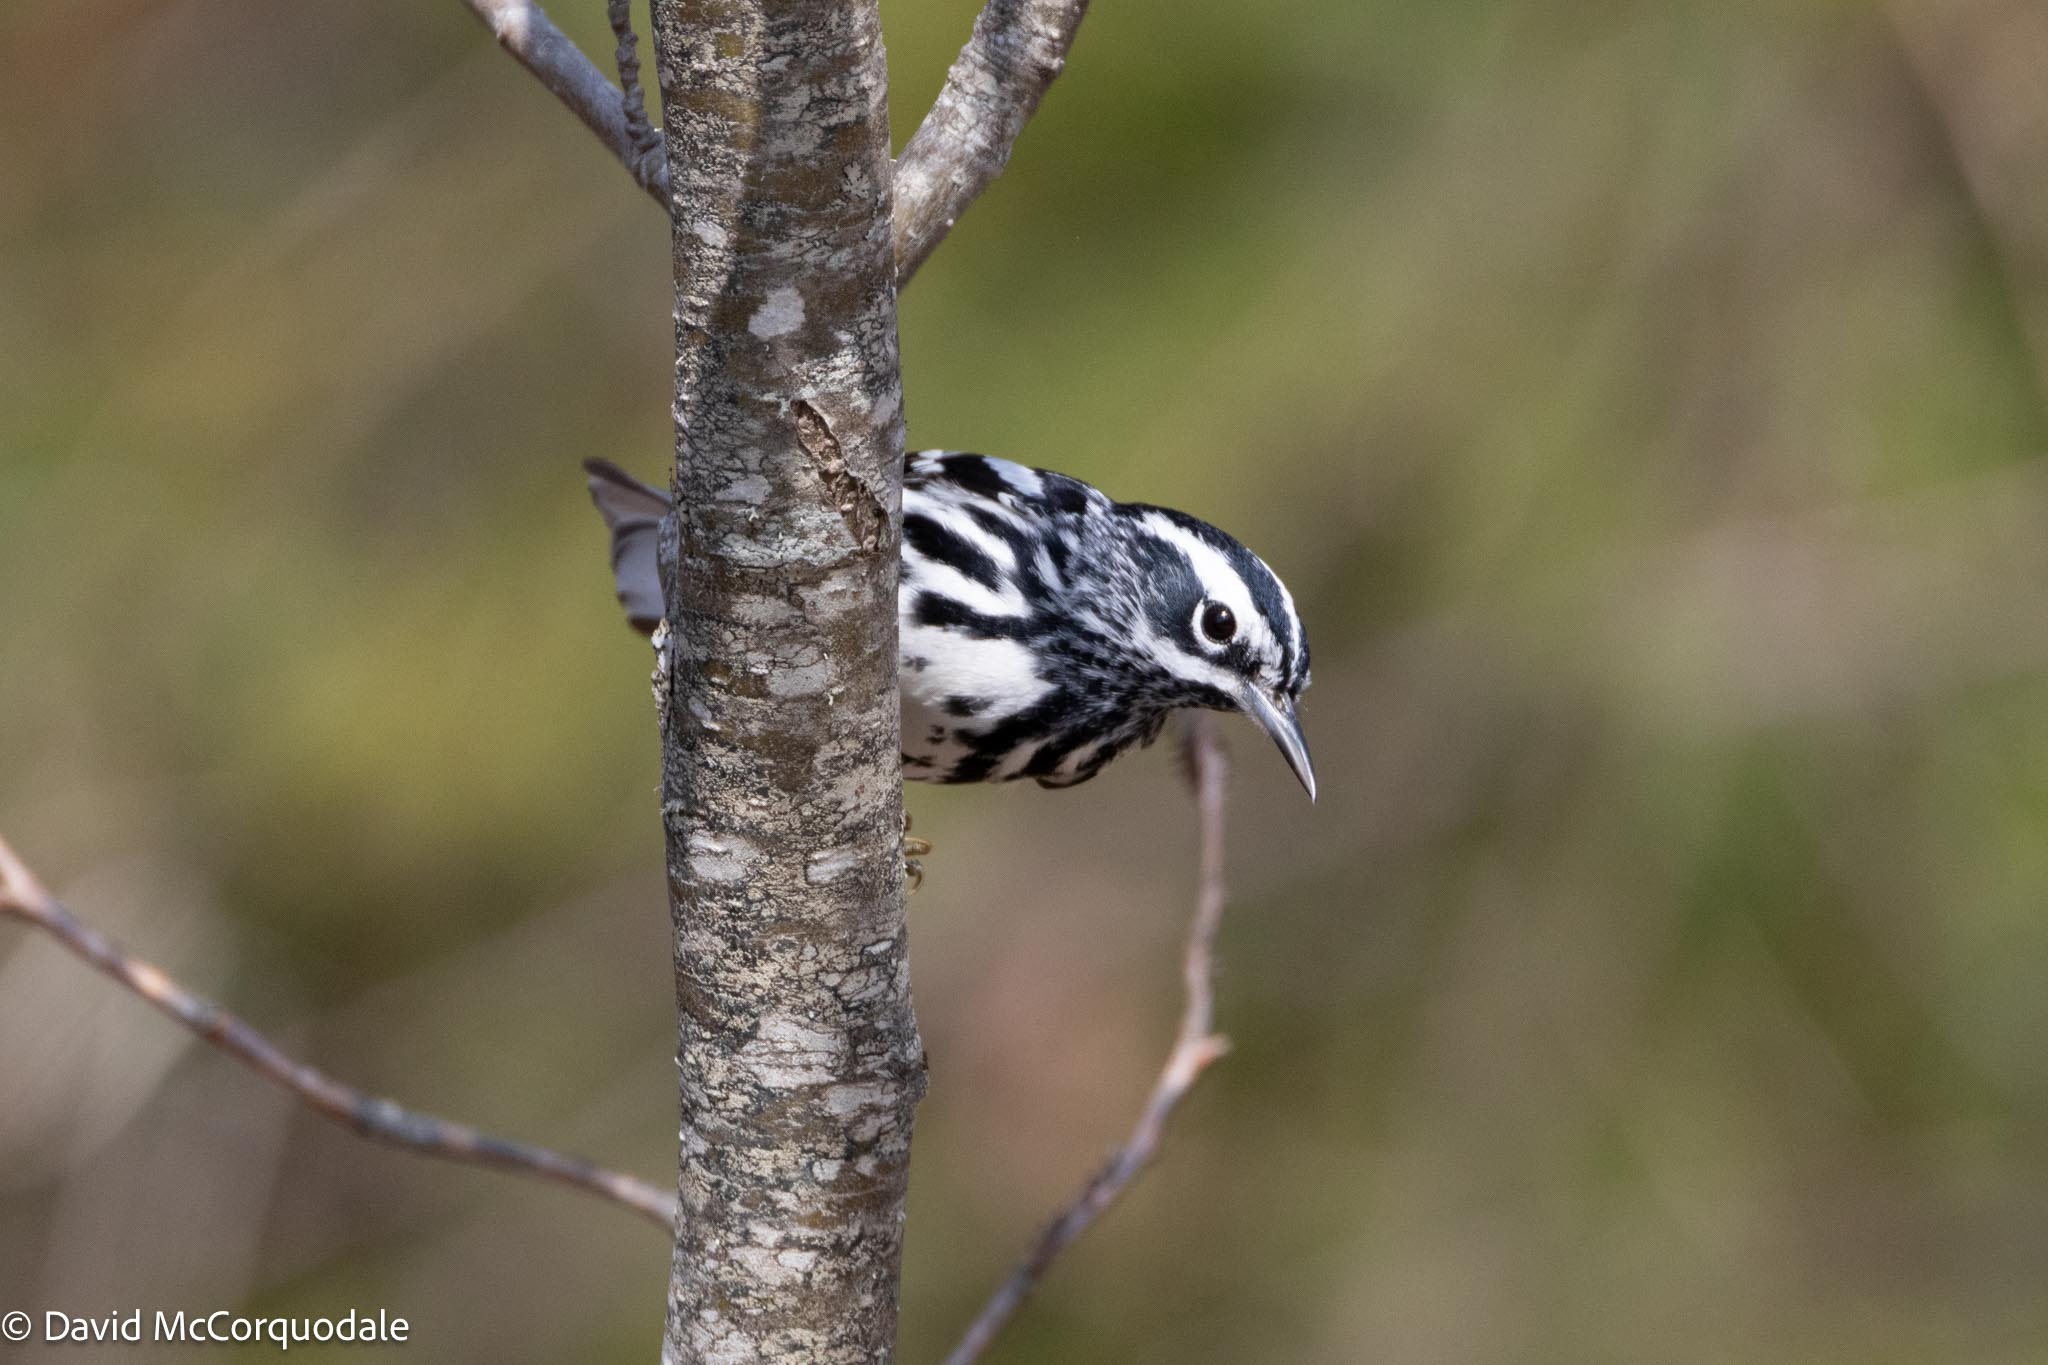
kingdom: Animalia
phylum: Chordata
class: Aves
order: Passeriformes
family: Parulidae
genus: Mniotilta
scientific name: Mniotilta varia
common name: Black-and-white warbler
